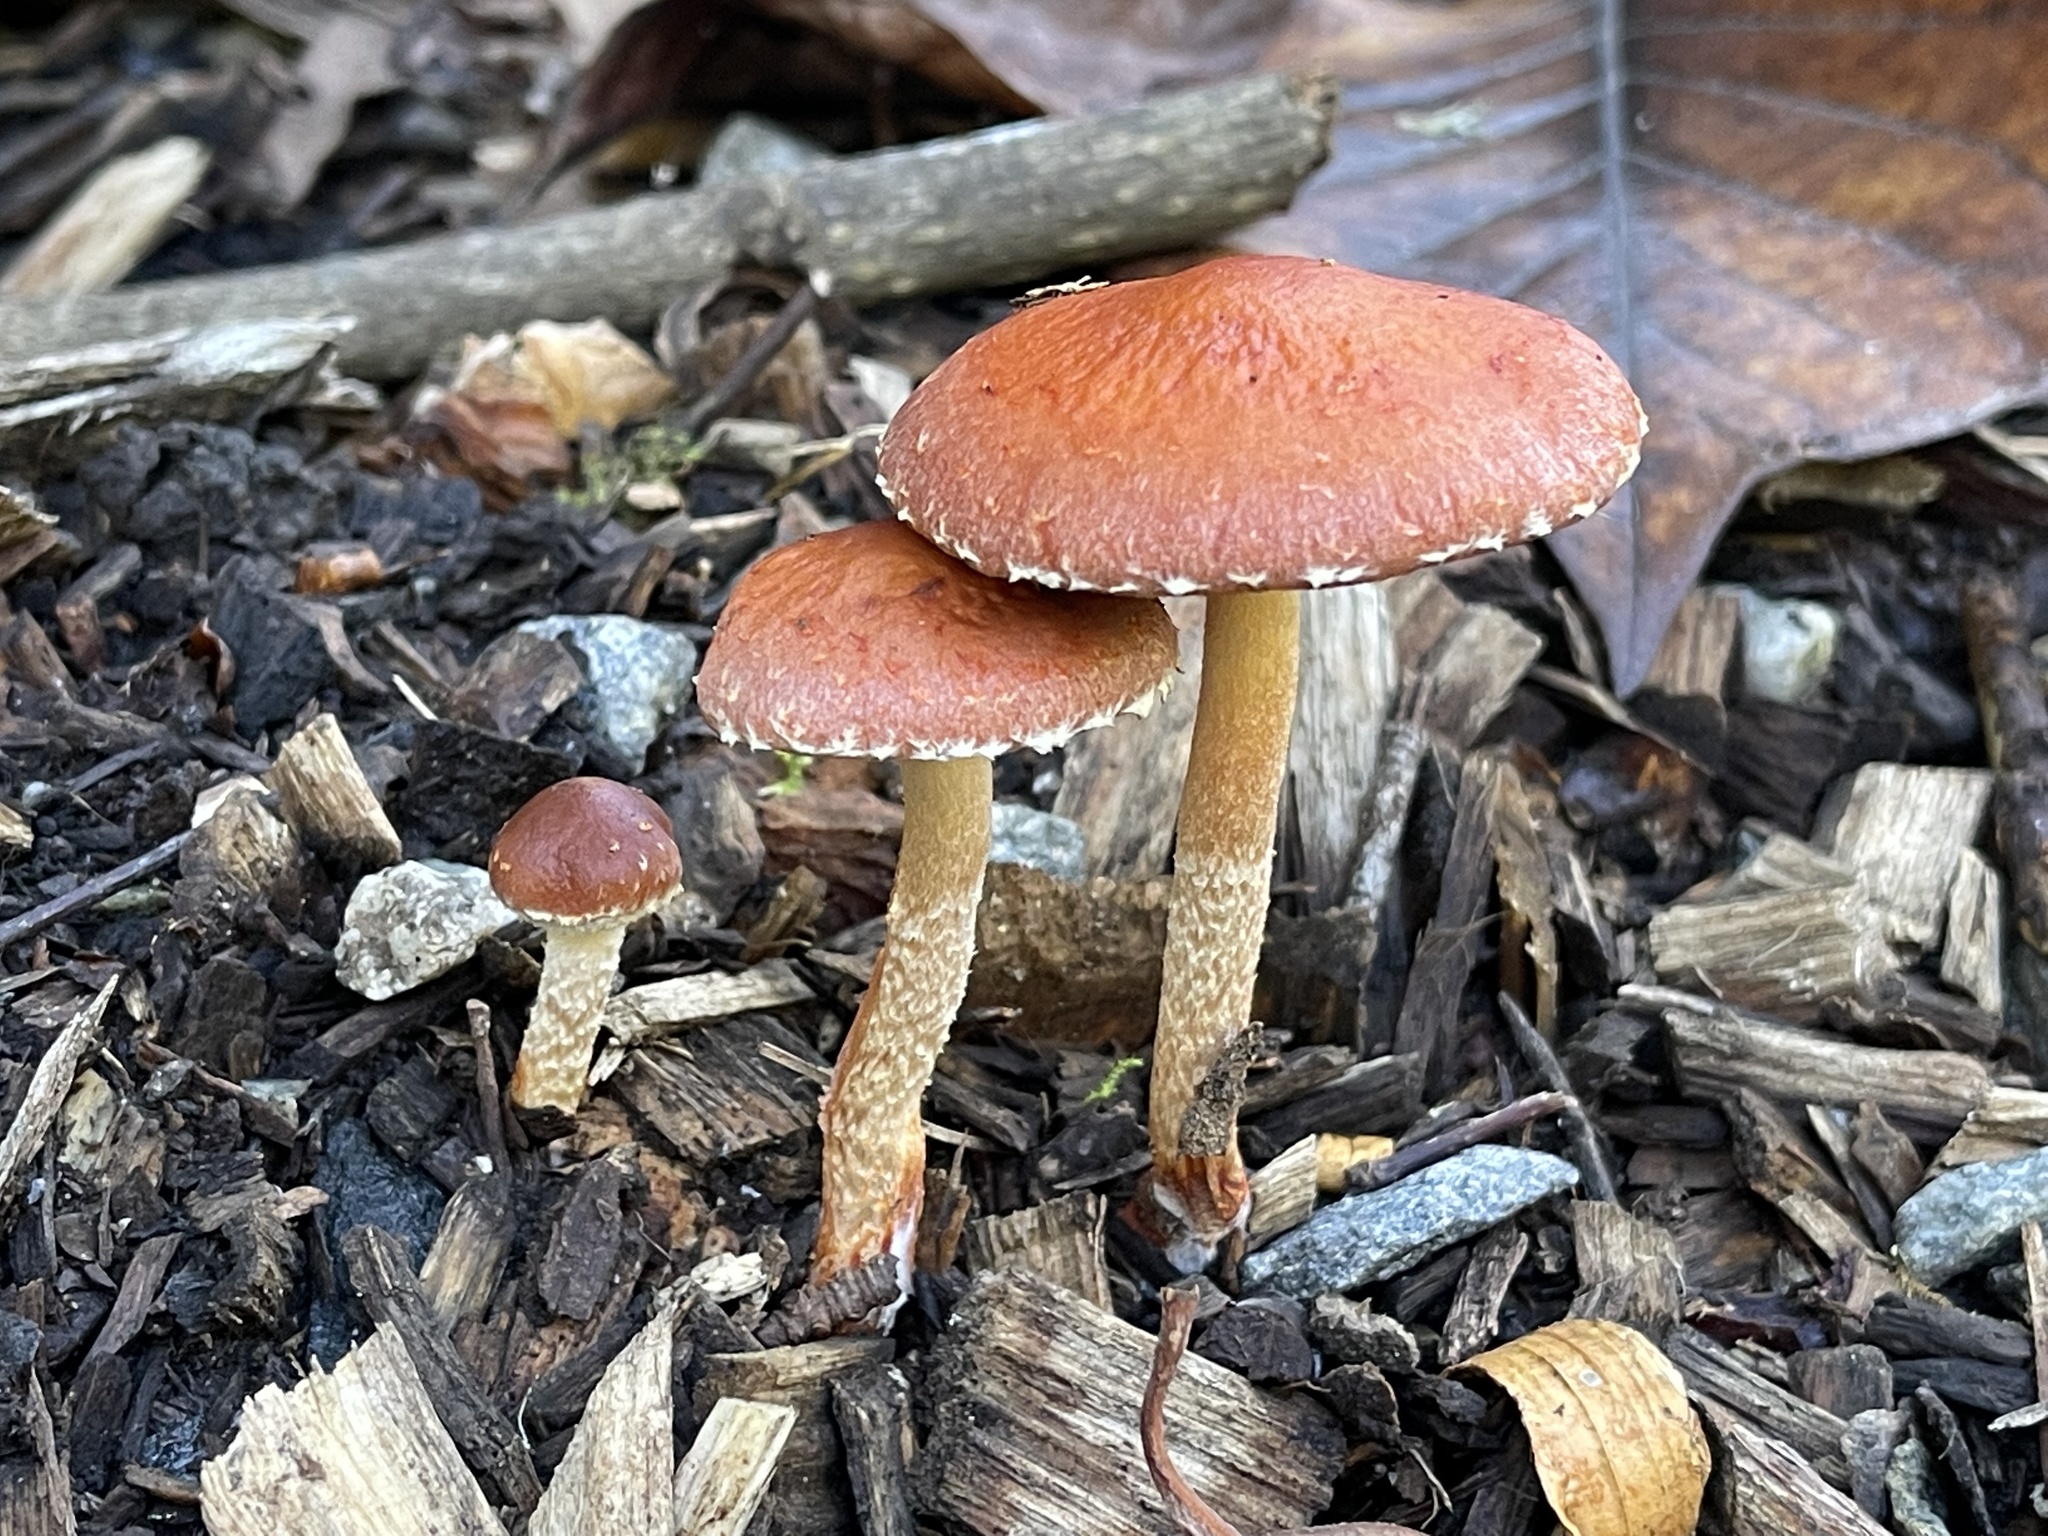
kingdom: Fungi
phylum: Basidiomycota
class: Agaricomycetes
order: Agaricales
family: Hymenogastraceae
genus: Psilocybe
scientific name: Psilocybe formosa
